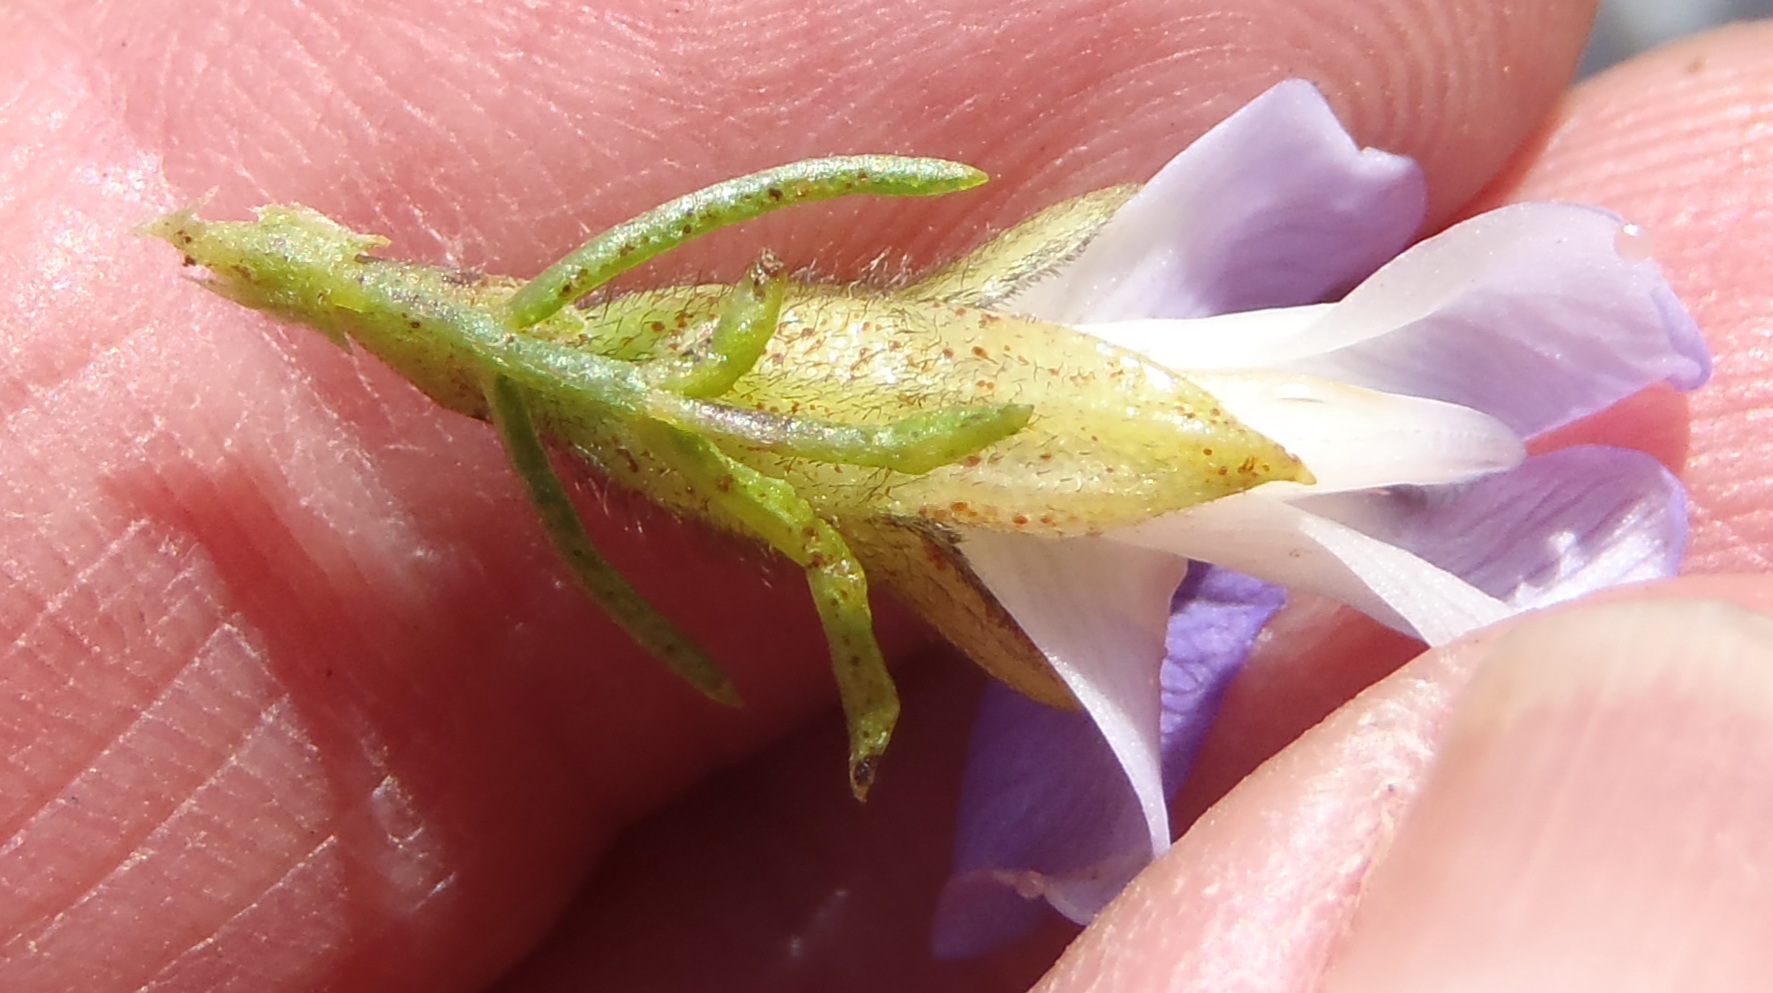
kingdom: Plantae
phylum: Tracheophyta
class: Magnoliopsida
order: Fabales
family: Fabaceae
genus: Psoralea
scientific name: Psoralea speciosa
